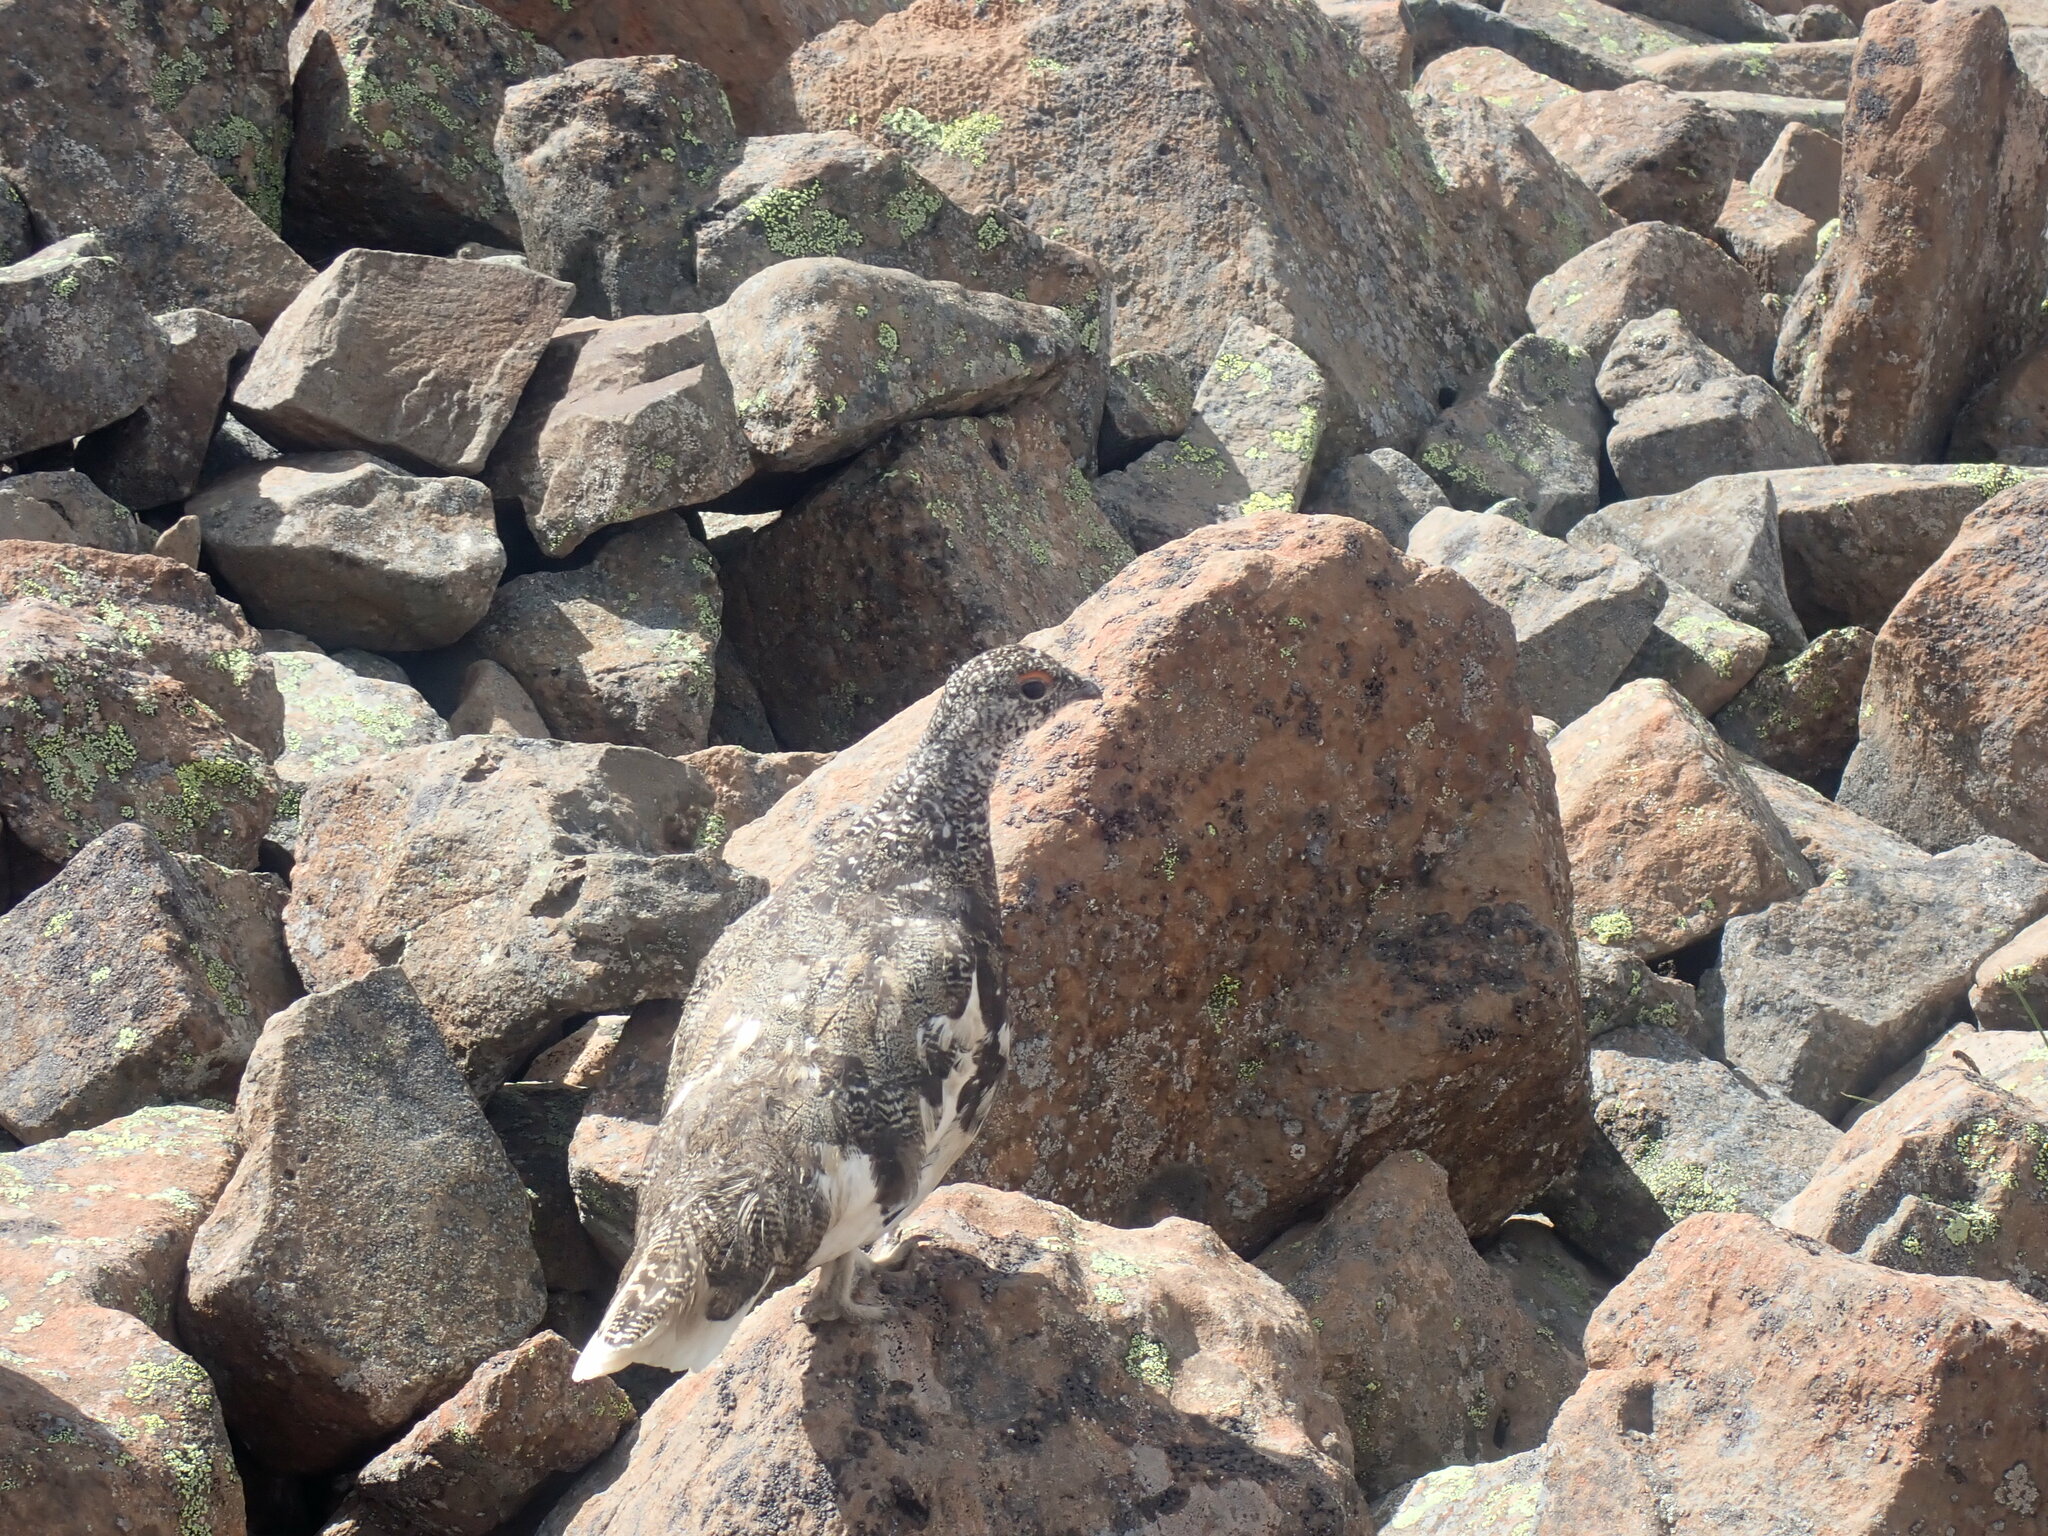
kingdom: Animalia
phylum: Chordata
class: Aves
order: Galliformes
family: Phasianidae
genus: Lagopus
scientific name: Lagopus leucura
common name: White-tailed ptarmigan
